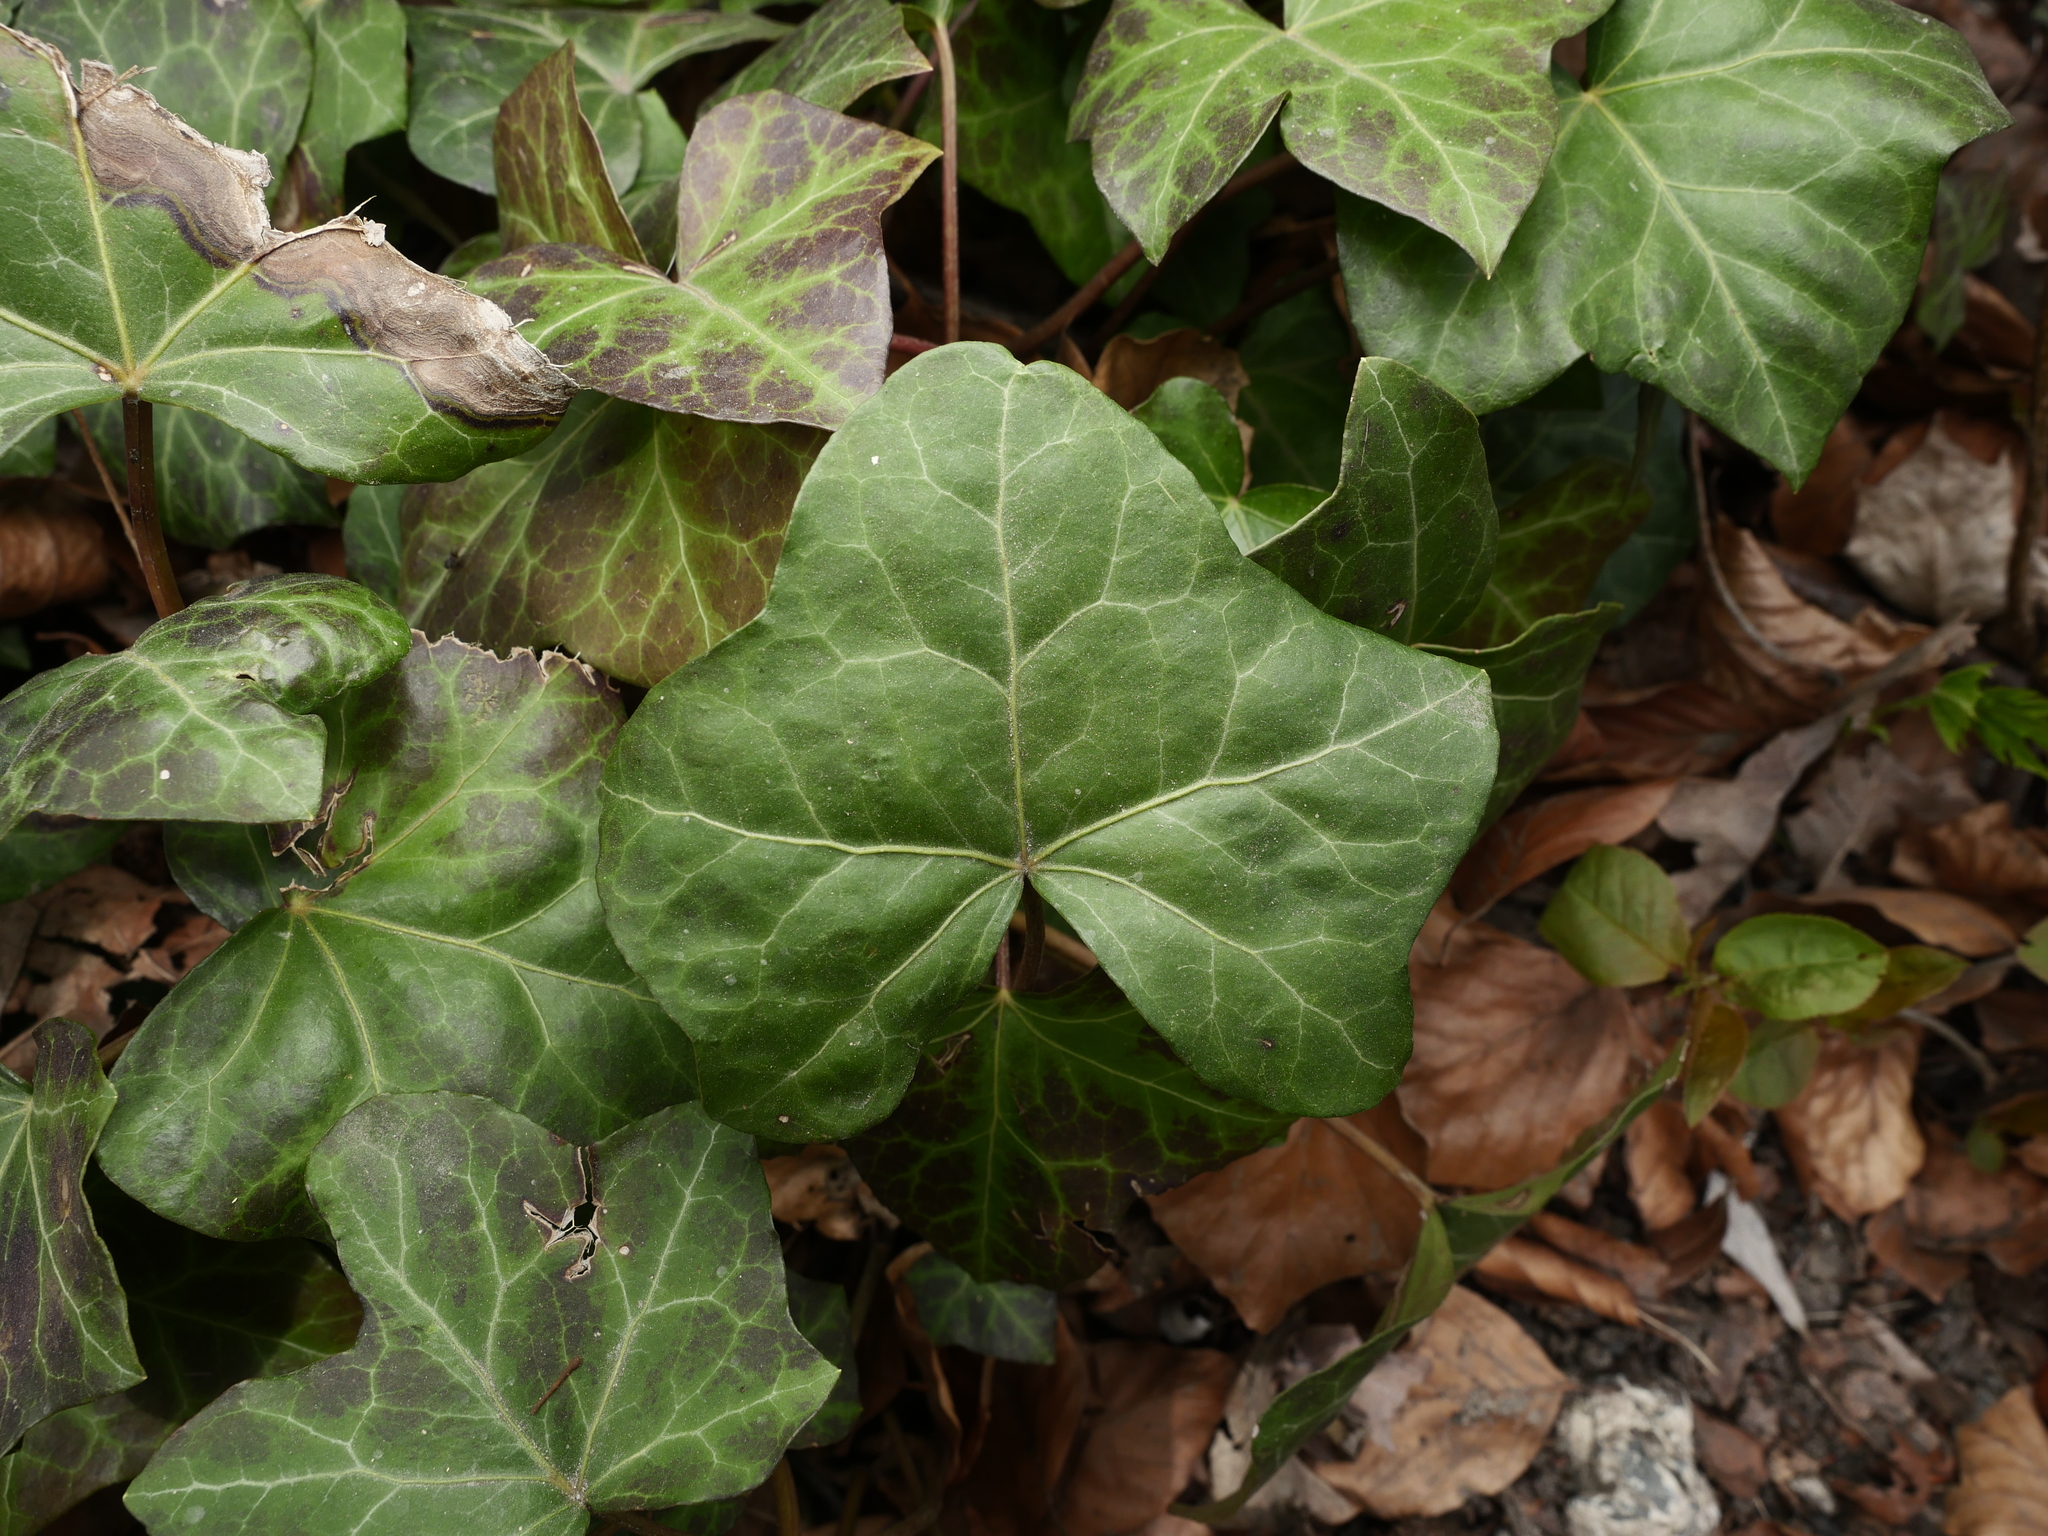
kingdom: Plantae
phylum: Tracheophyta
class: Magnoliopsida
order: Apiales
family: Araliaceae
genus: Hedera
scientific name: Hedera helix
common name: Ivy
